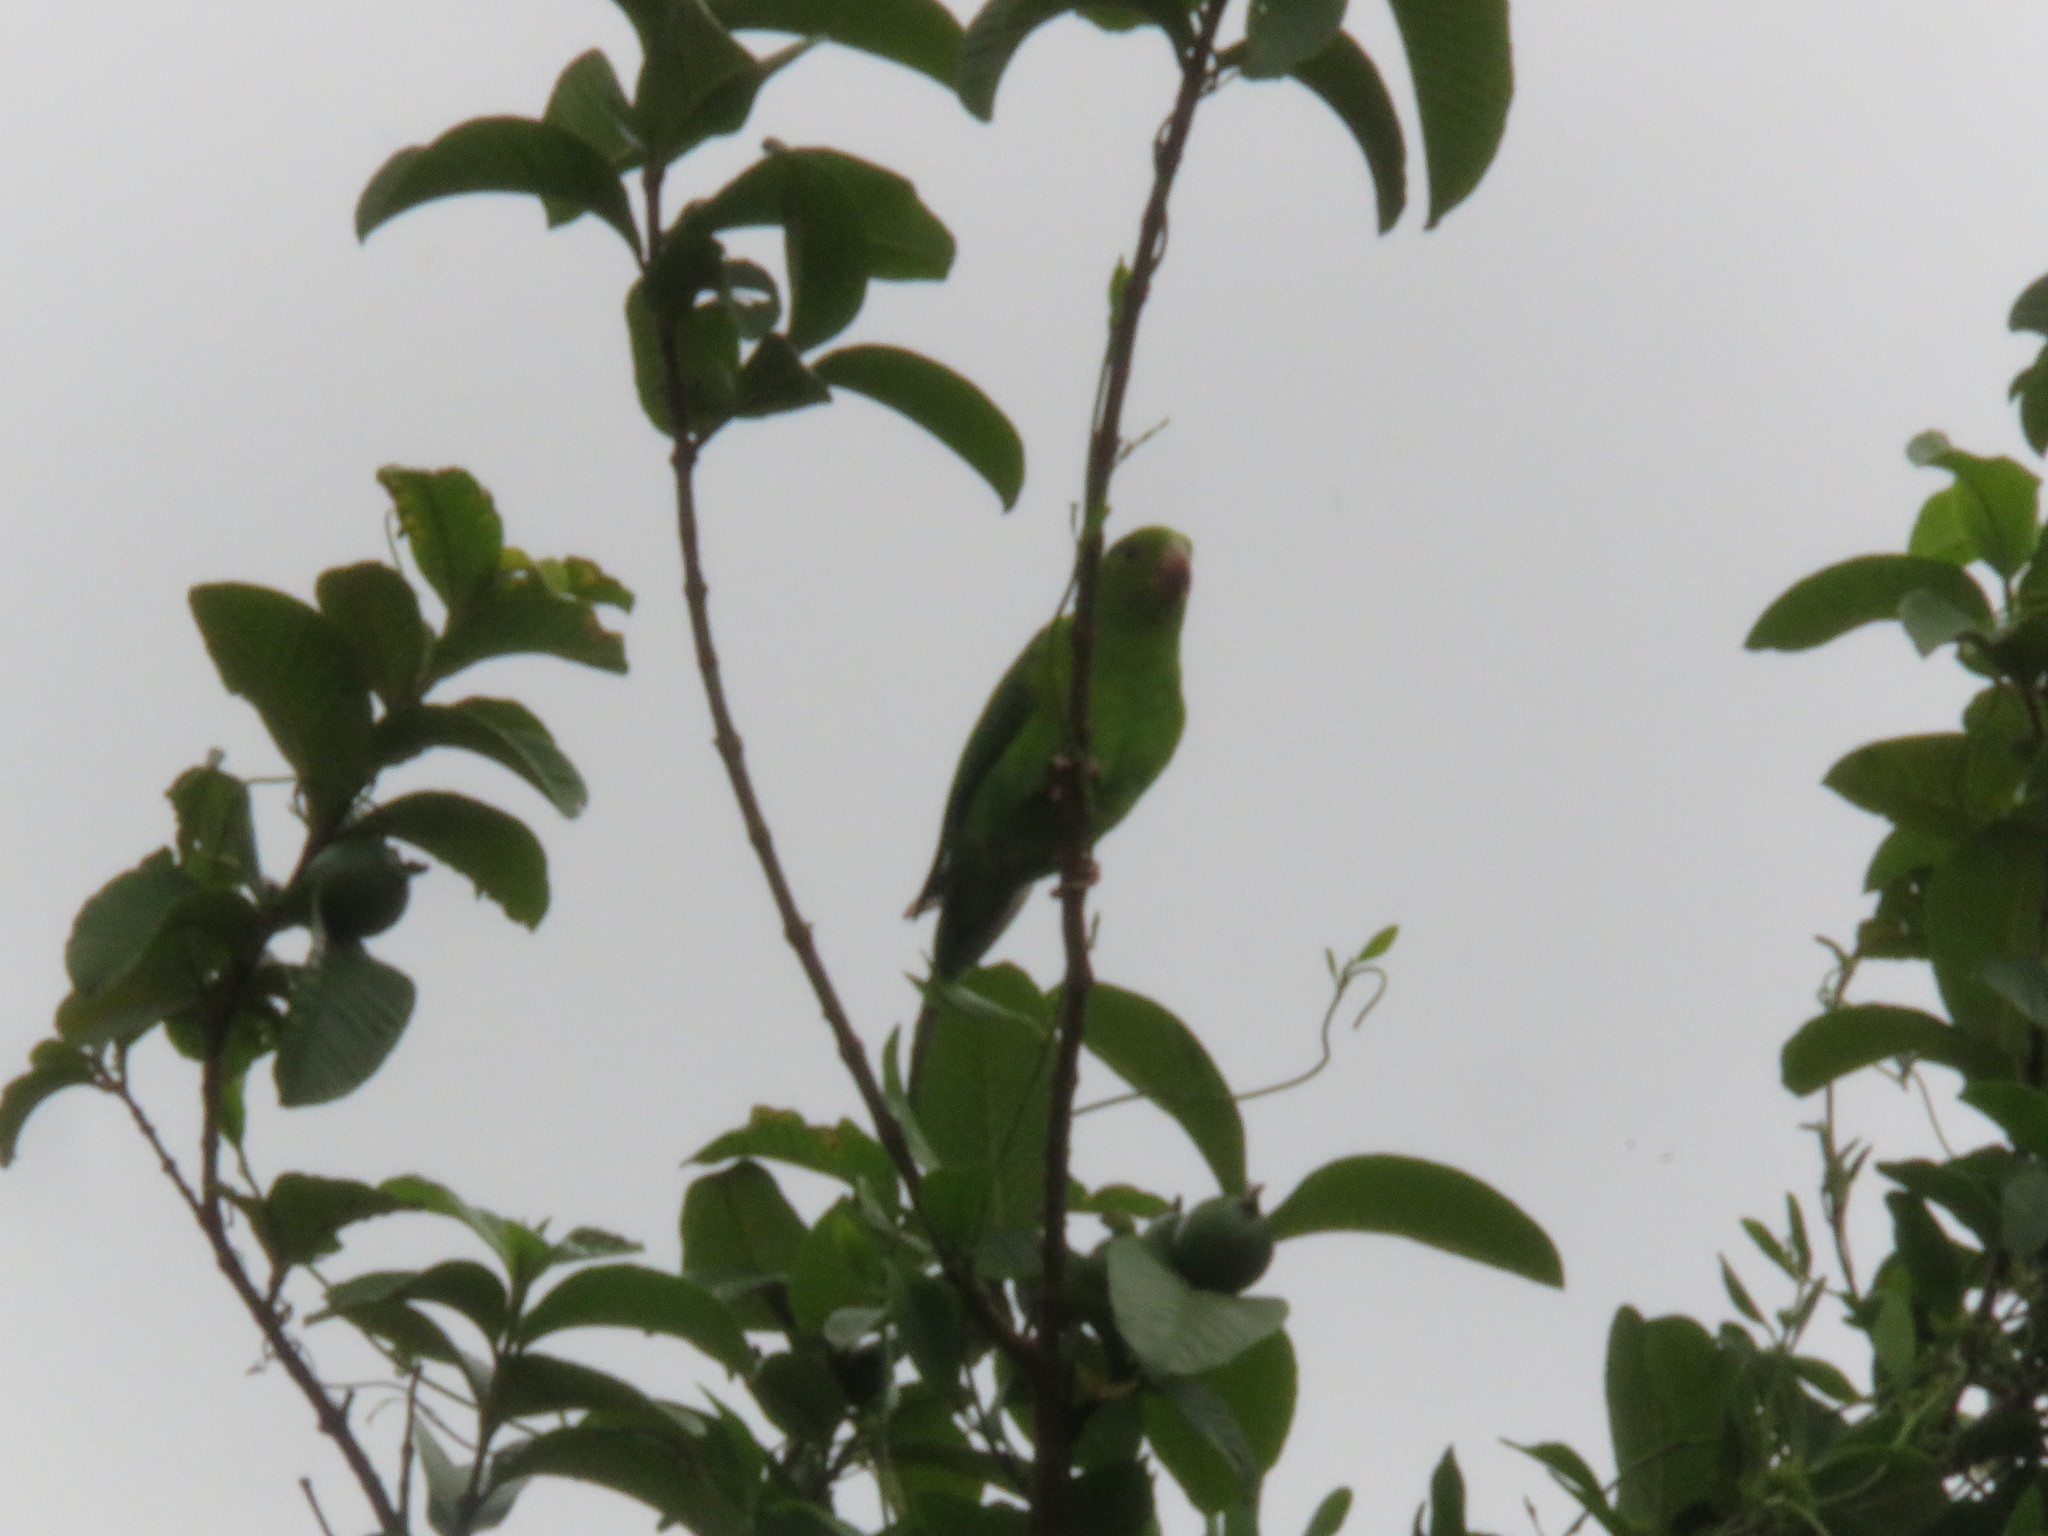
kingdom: Animalia
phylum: Chordata
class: Aves
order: Psittaciformes
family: Psittacidae
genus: Brotogeris
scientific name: Brotogeris tirica
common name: Plain parakeet
